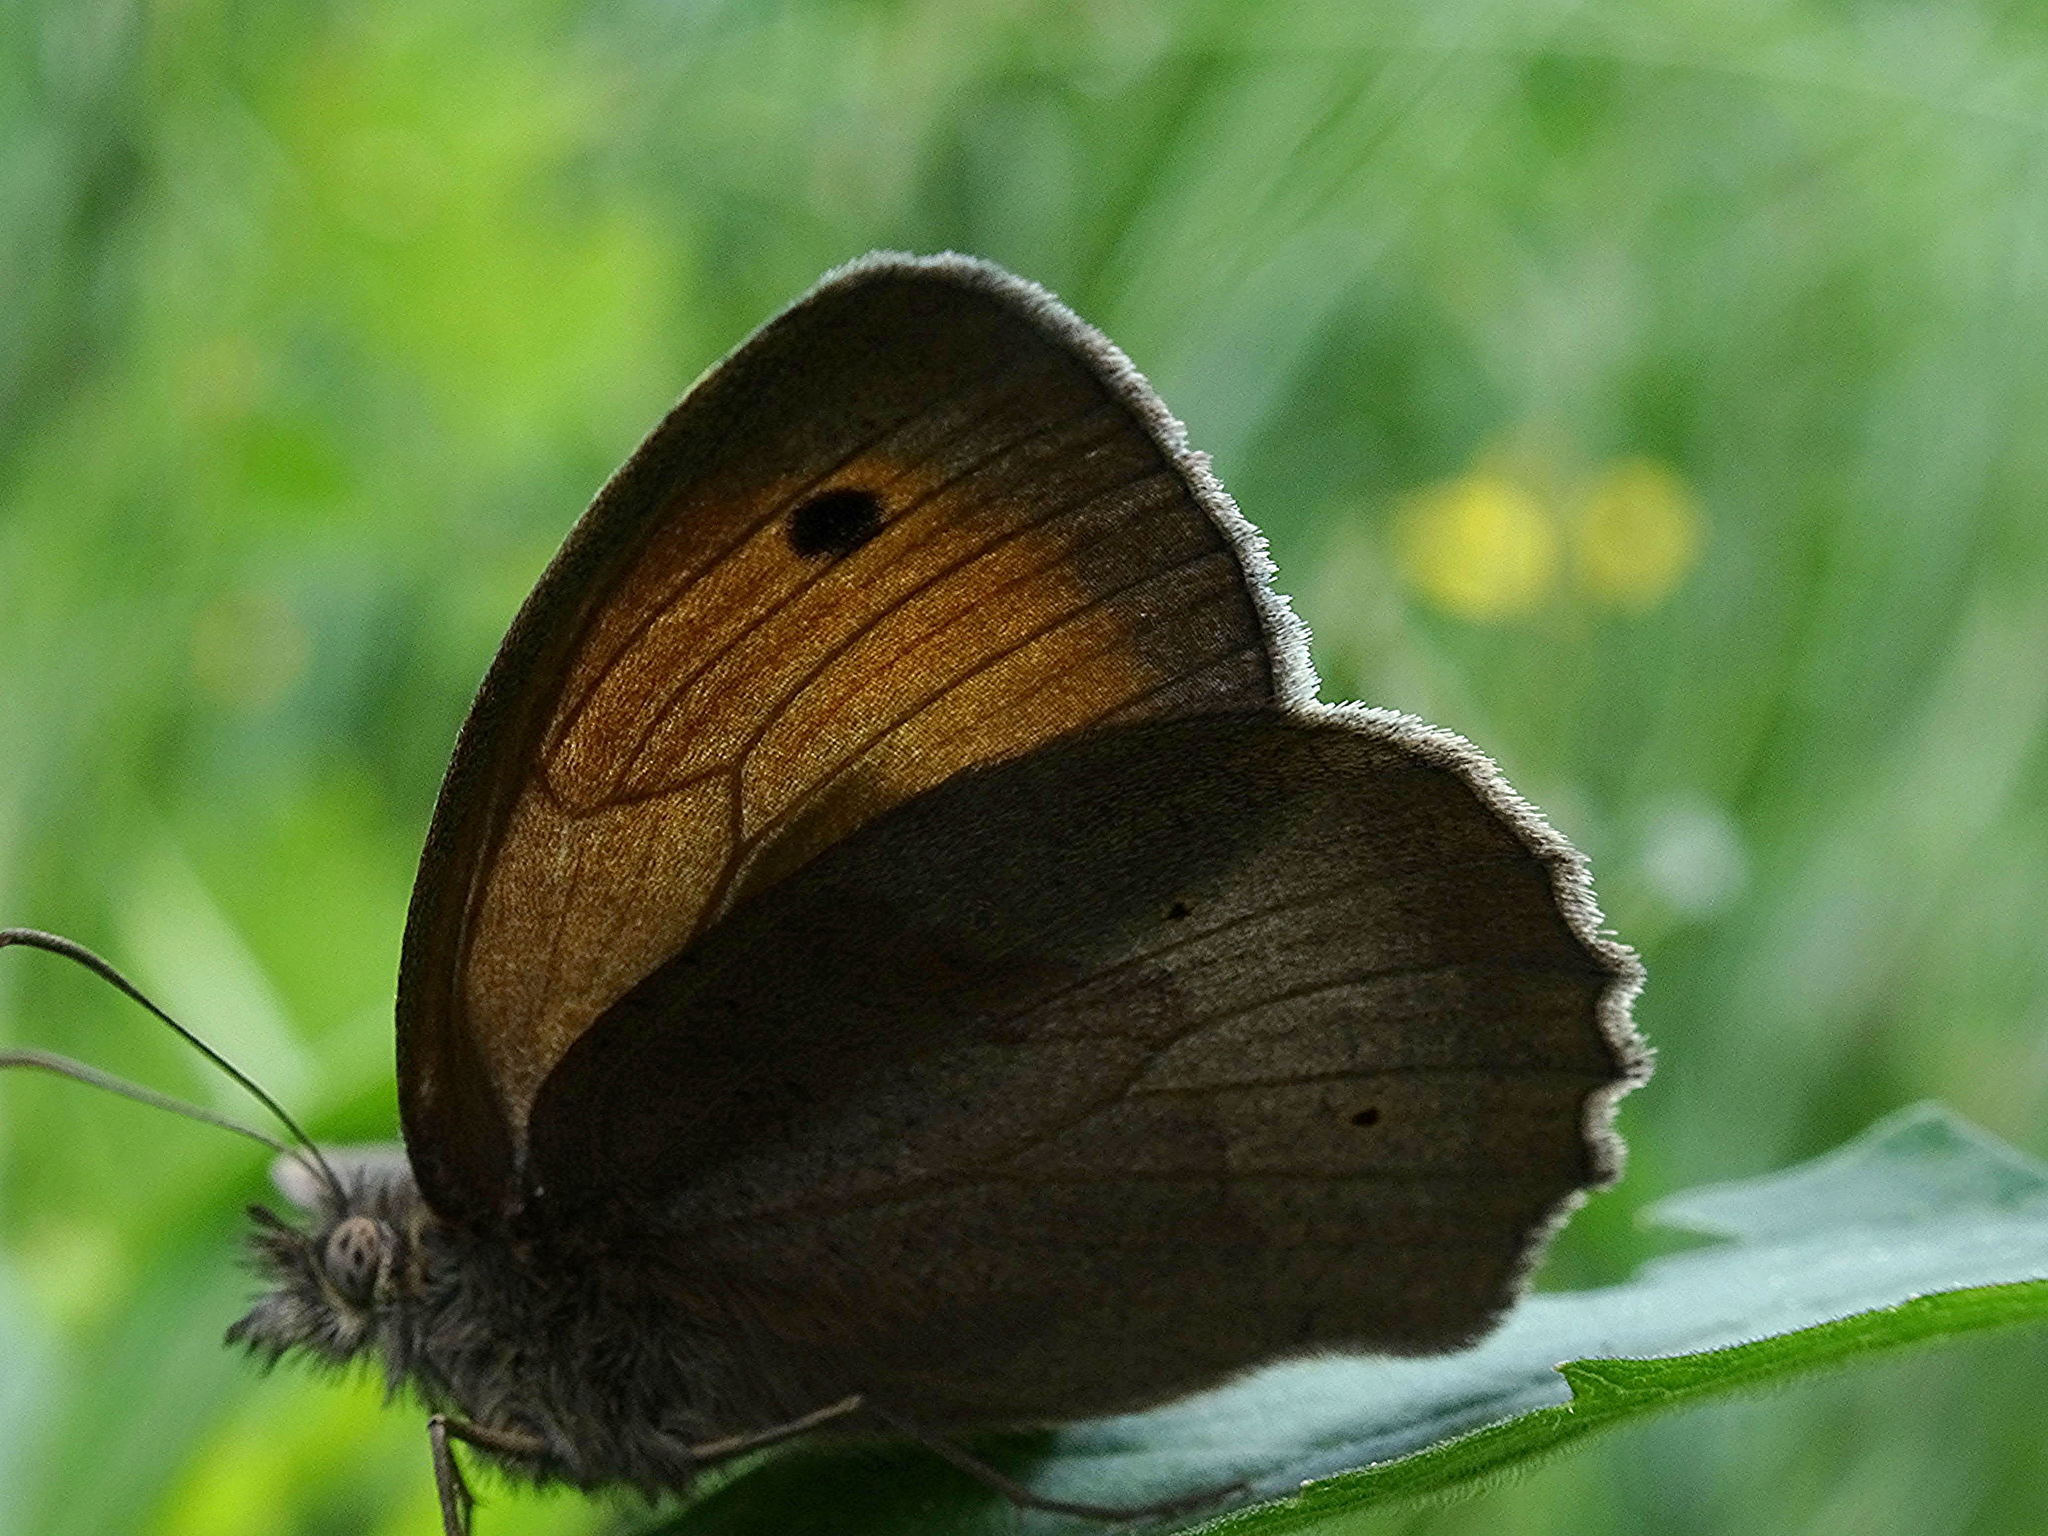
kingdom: Animalia
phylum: Arthropoda
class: Insecta
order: Lepidoptera
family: Nymphalidae
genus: Maniola
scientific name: Maniola jurtina
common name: Meadow brown
